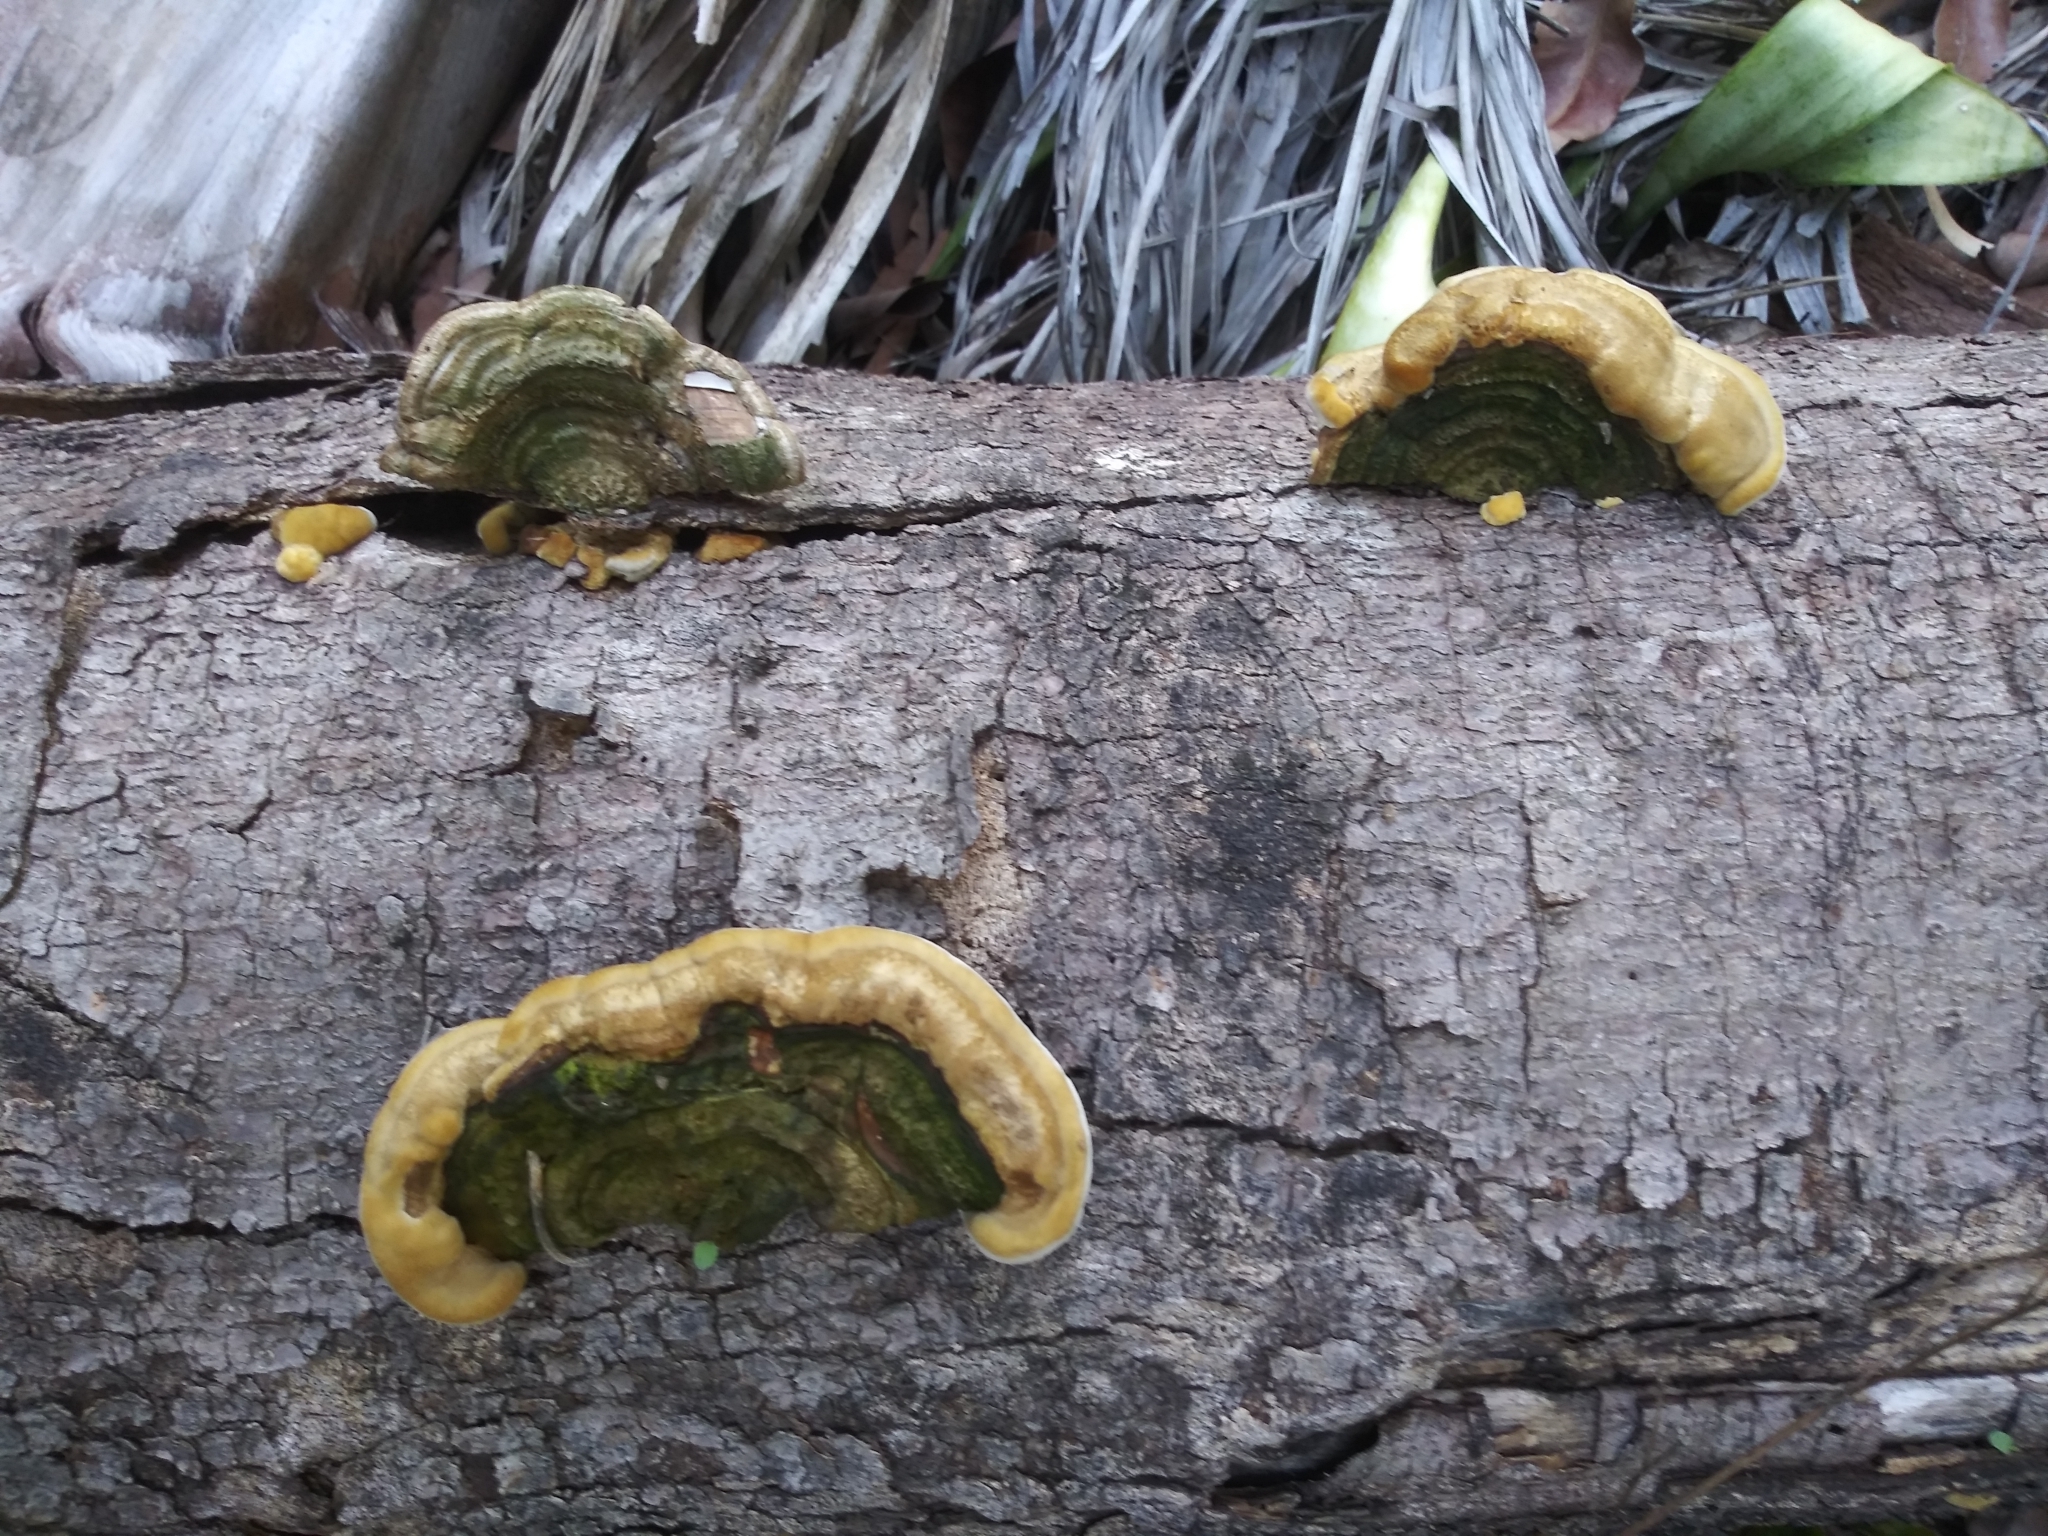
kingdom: Fungi
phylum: Basidiomycota
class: Agaricomycetes
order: Polyporales
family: Polyporaceae
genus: Trametes
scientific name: Trametes cubensis
